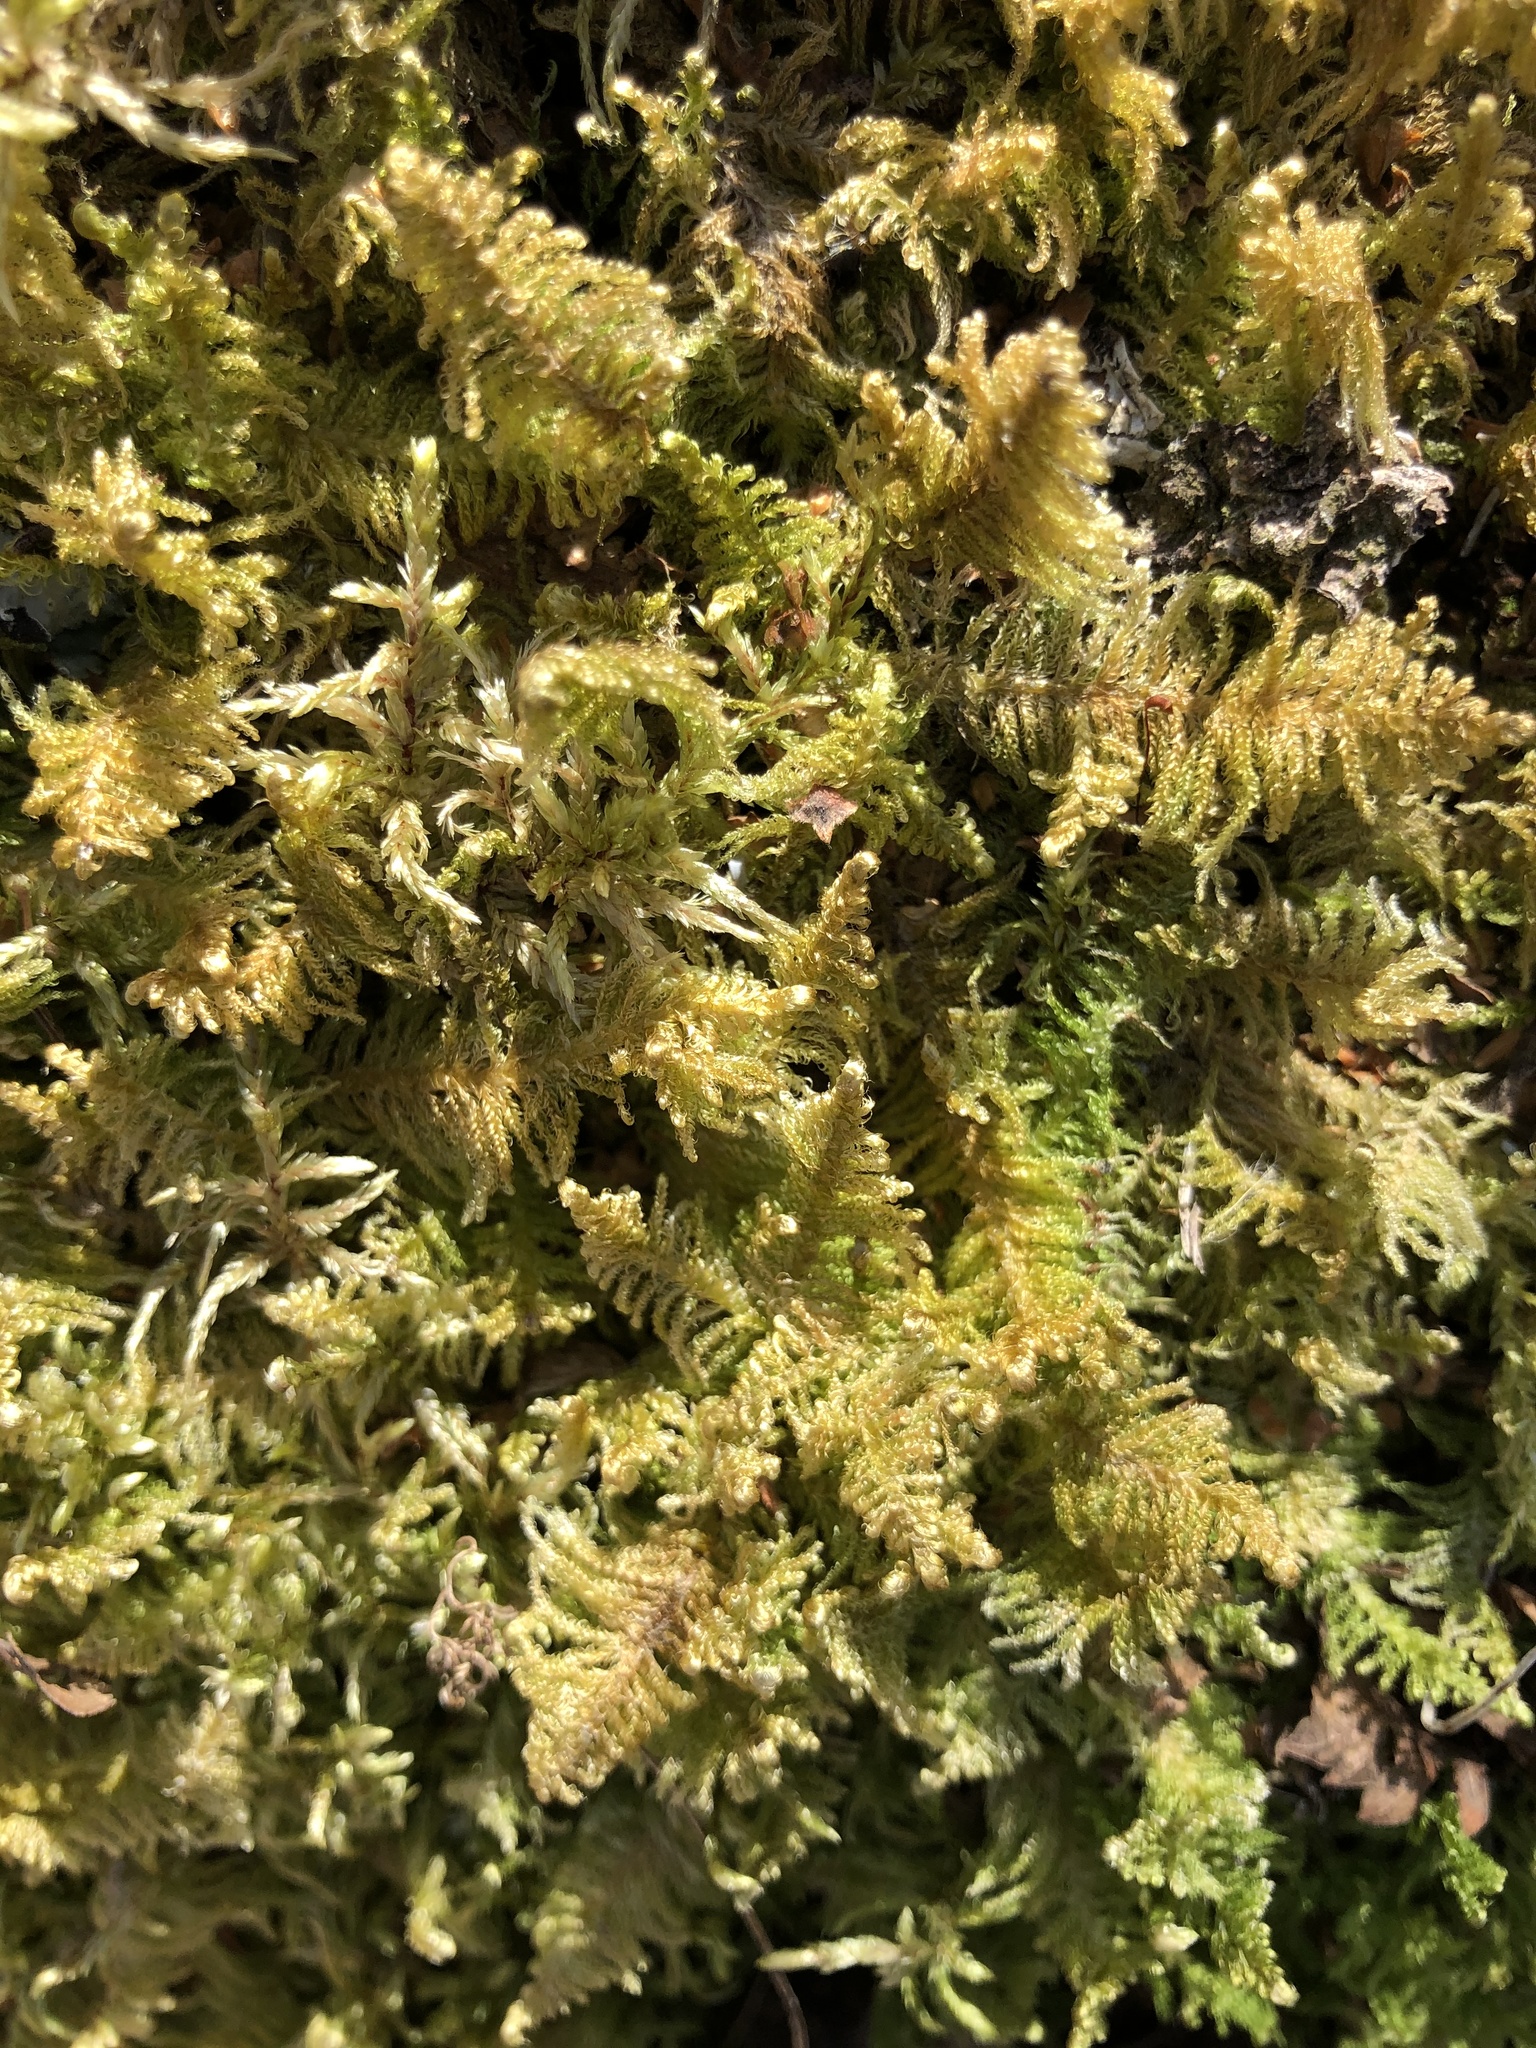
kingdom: Plantae
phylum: Bryophyta
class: Bryopsida
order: Hypnales
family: Pylaisiaceae
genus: Ptilium
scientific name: Ptilium crista-castrensis
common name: Knight's plume moss
